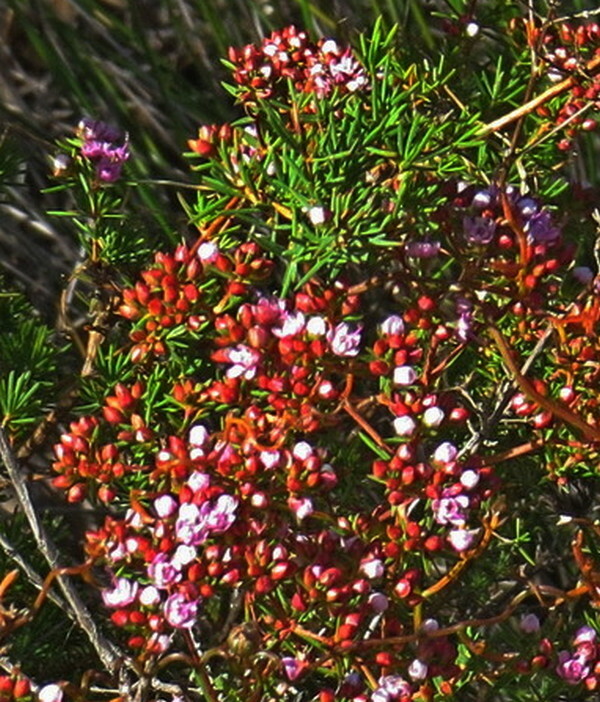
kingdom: Plantae
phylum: Tracheophyta
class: Magnoliopsida
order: Myrtales
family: Myrtaceae
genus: Verticordia
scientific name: Verticordia densiflora
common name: Compact feather-flower
